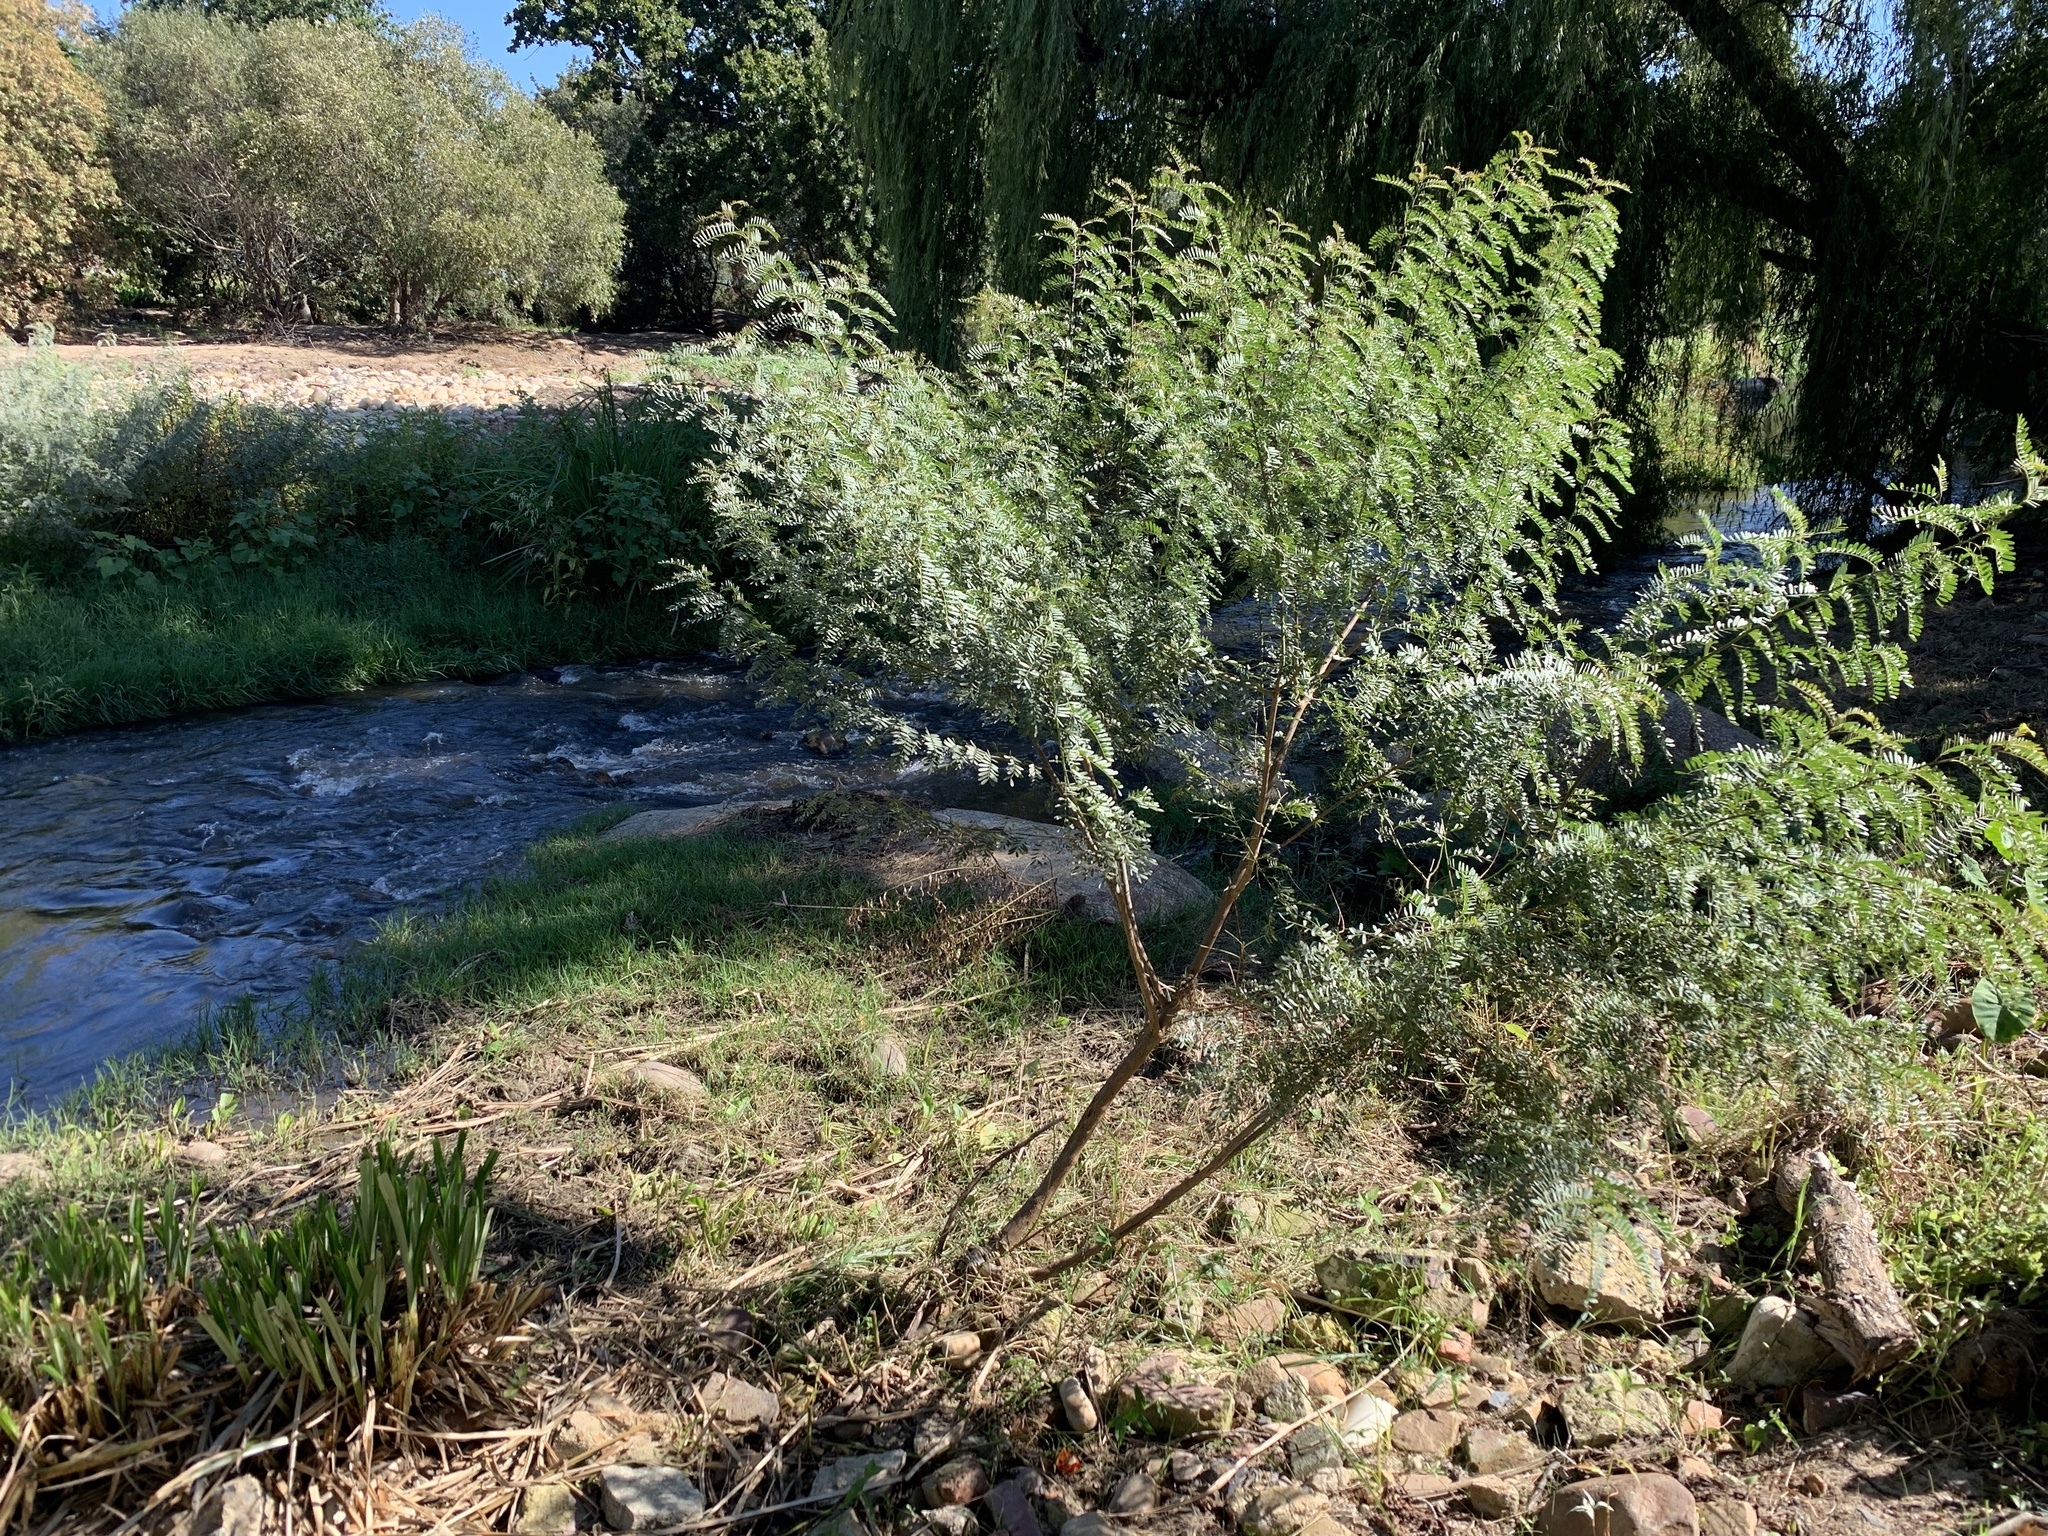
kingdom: Plantae
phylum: Tracheophyta
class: Magnoliopsida
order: Fabales
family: Fabaceae
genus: Sesbania
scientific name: Sesbania punicea
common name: Rattlebox
